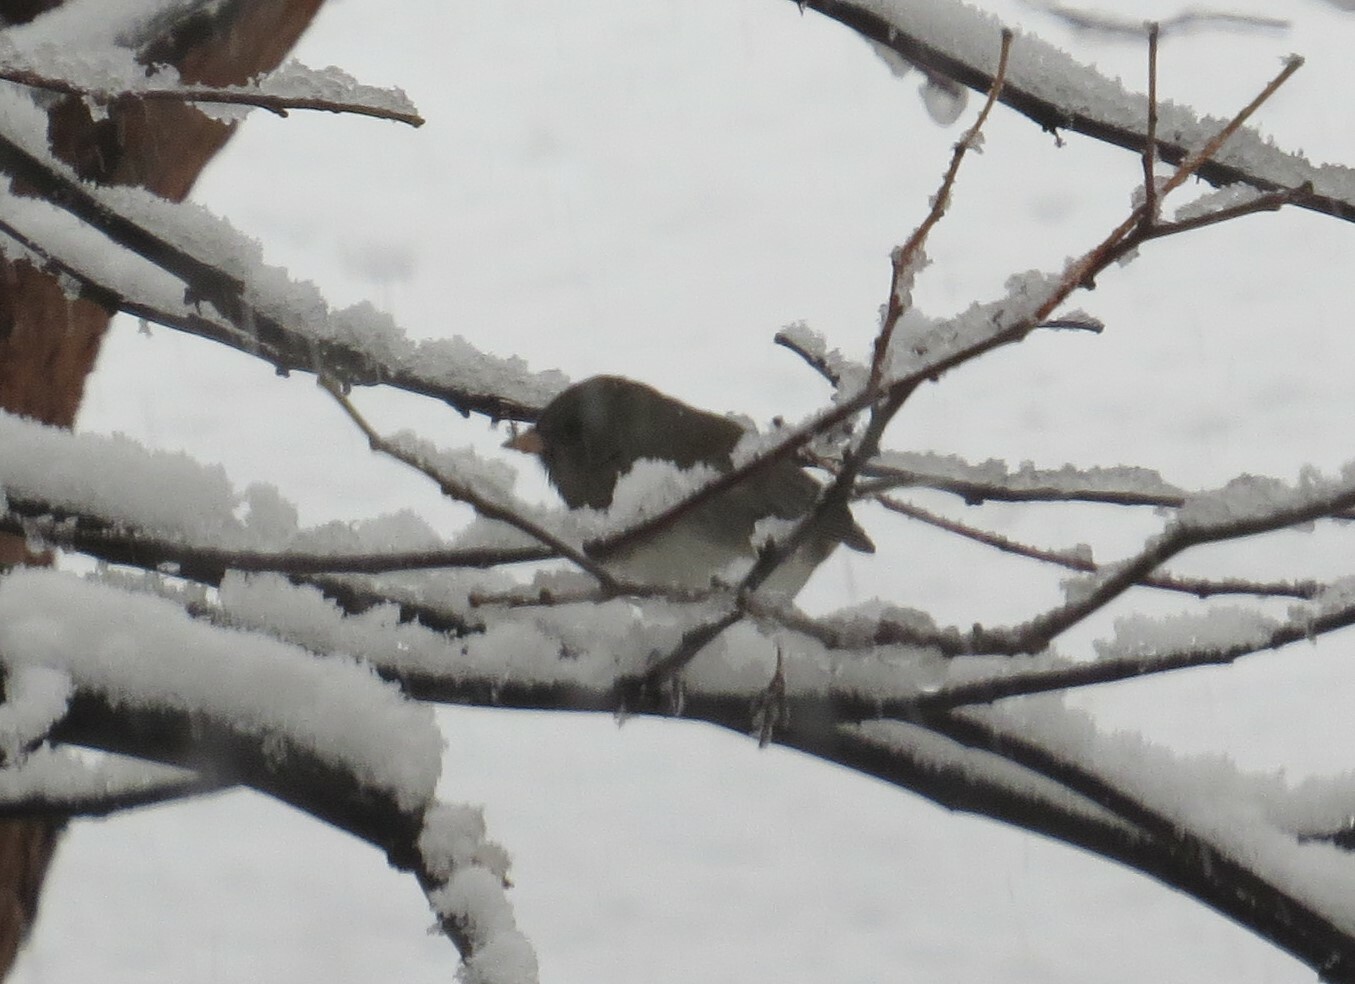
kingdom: Animalia
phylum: Chordata
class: Aves
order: Passeriformes
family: Passerellidae
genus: Junco
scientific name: Junco hyemalis
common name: Dark-eyed junco
